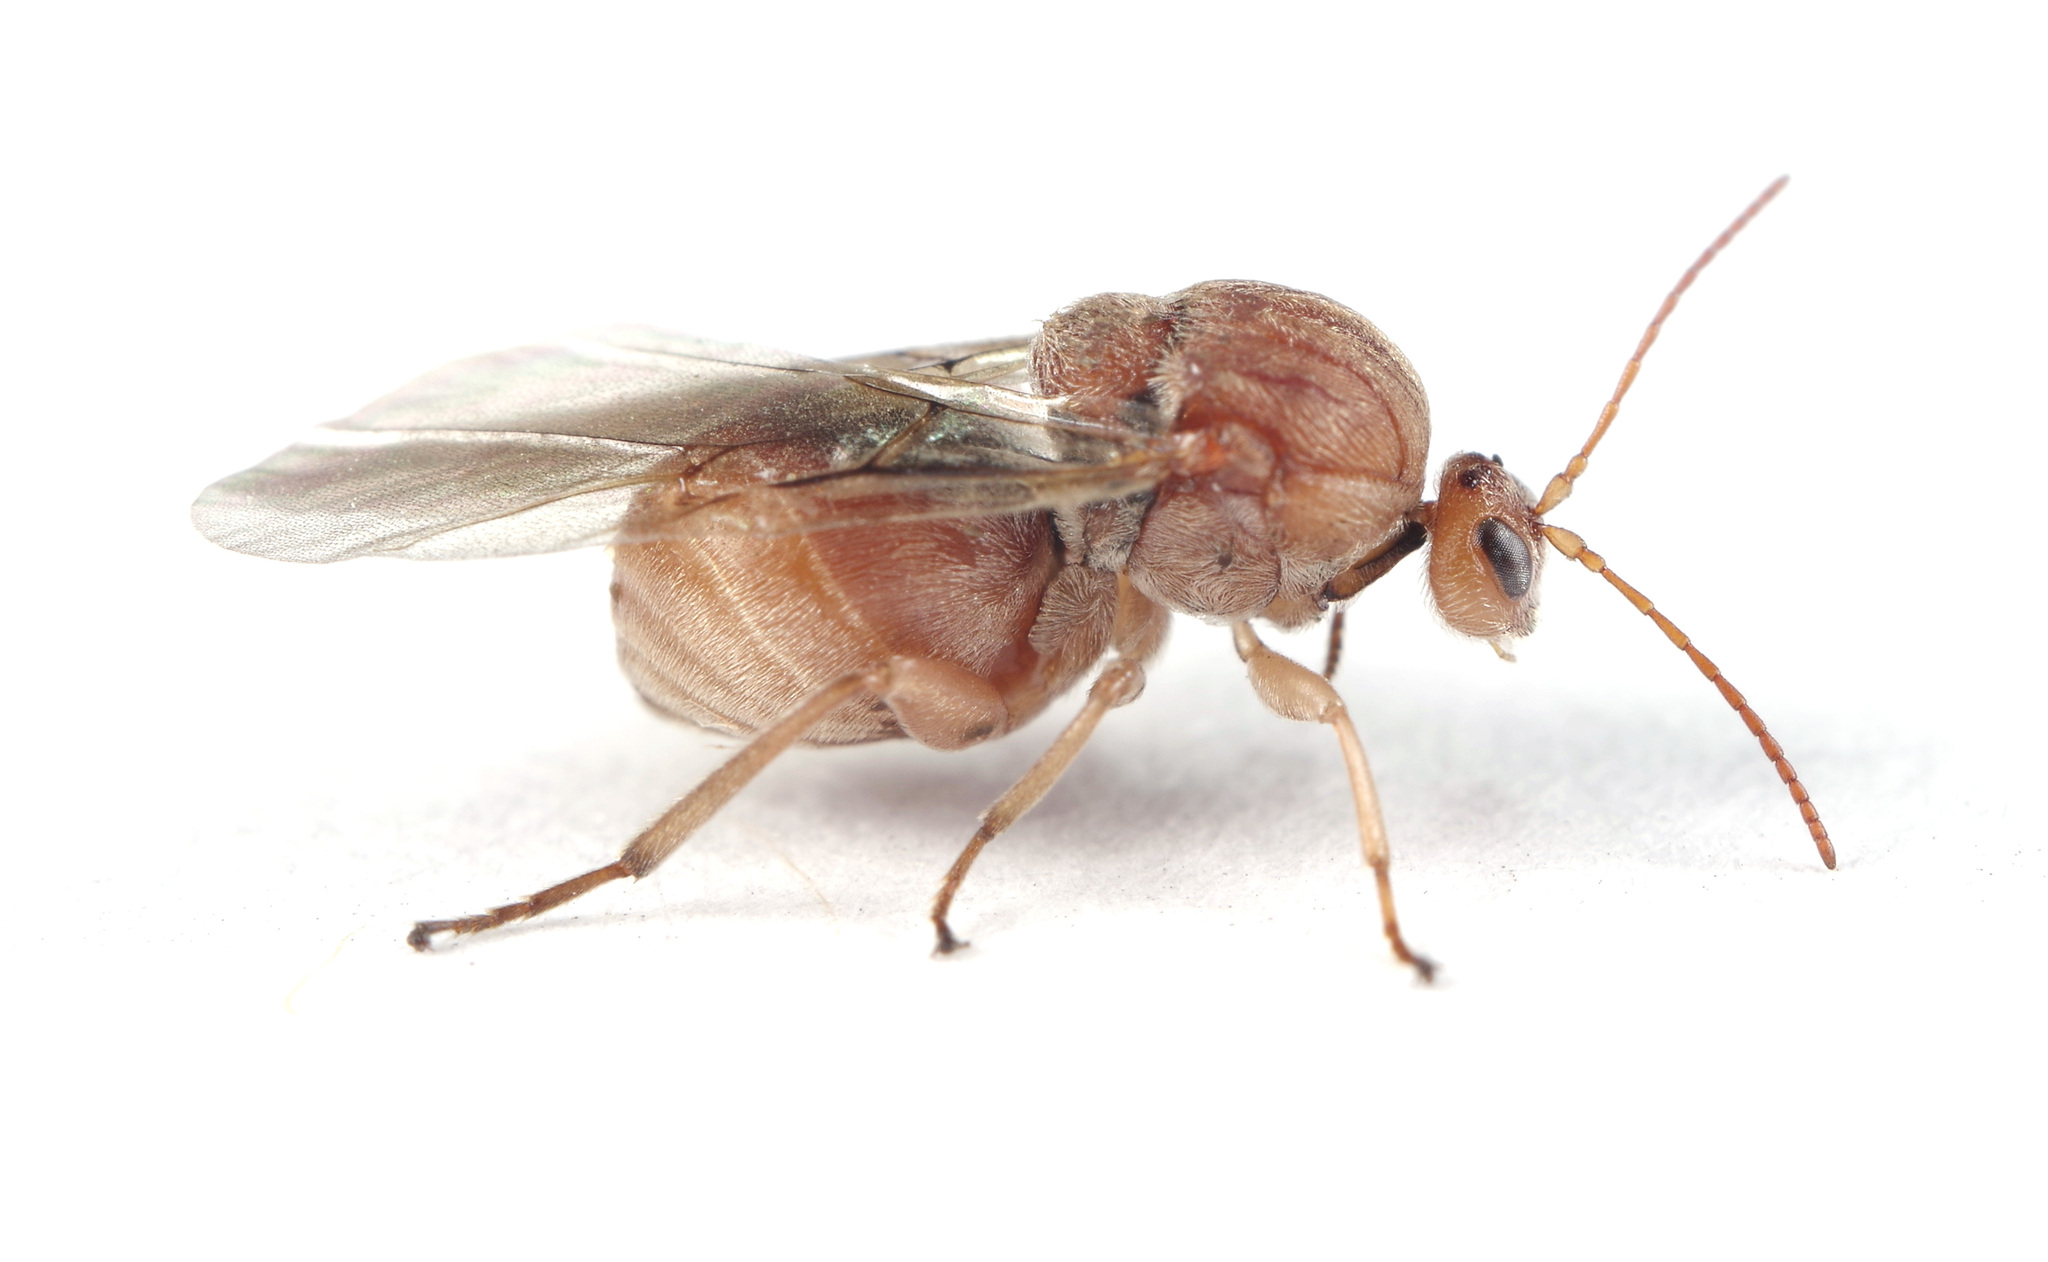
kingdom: Animalia
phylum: Arthropoda
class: Insecta
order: Hymenoptera
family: Cynipidae
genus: Andricus
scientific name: Andricus kollari
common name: Marble gall
